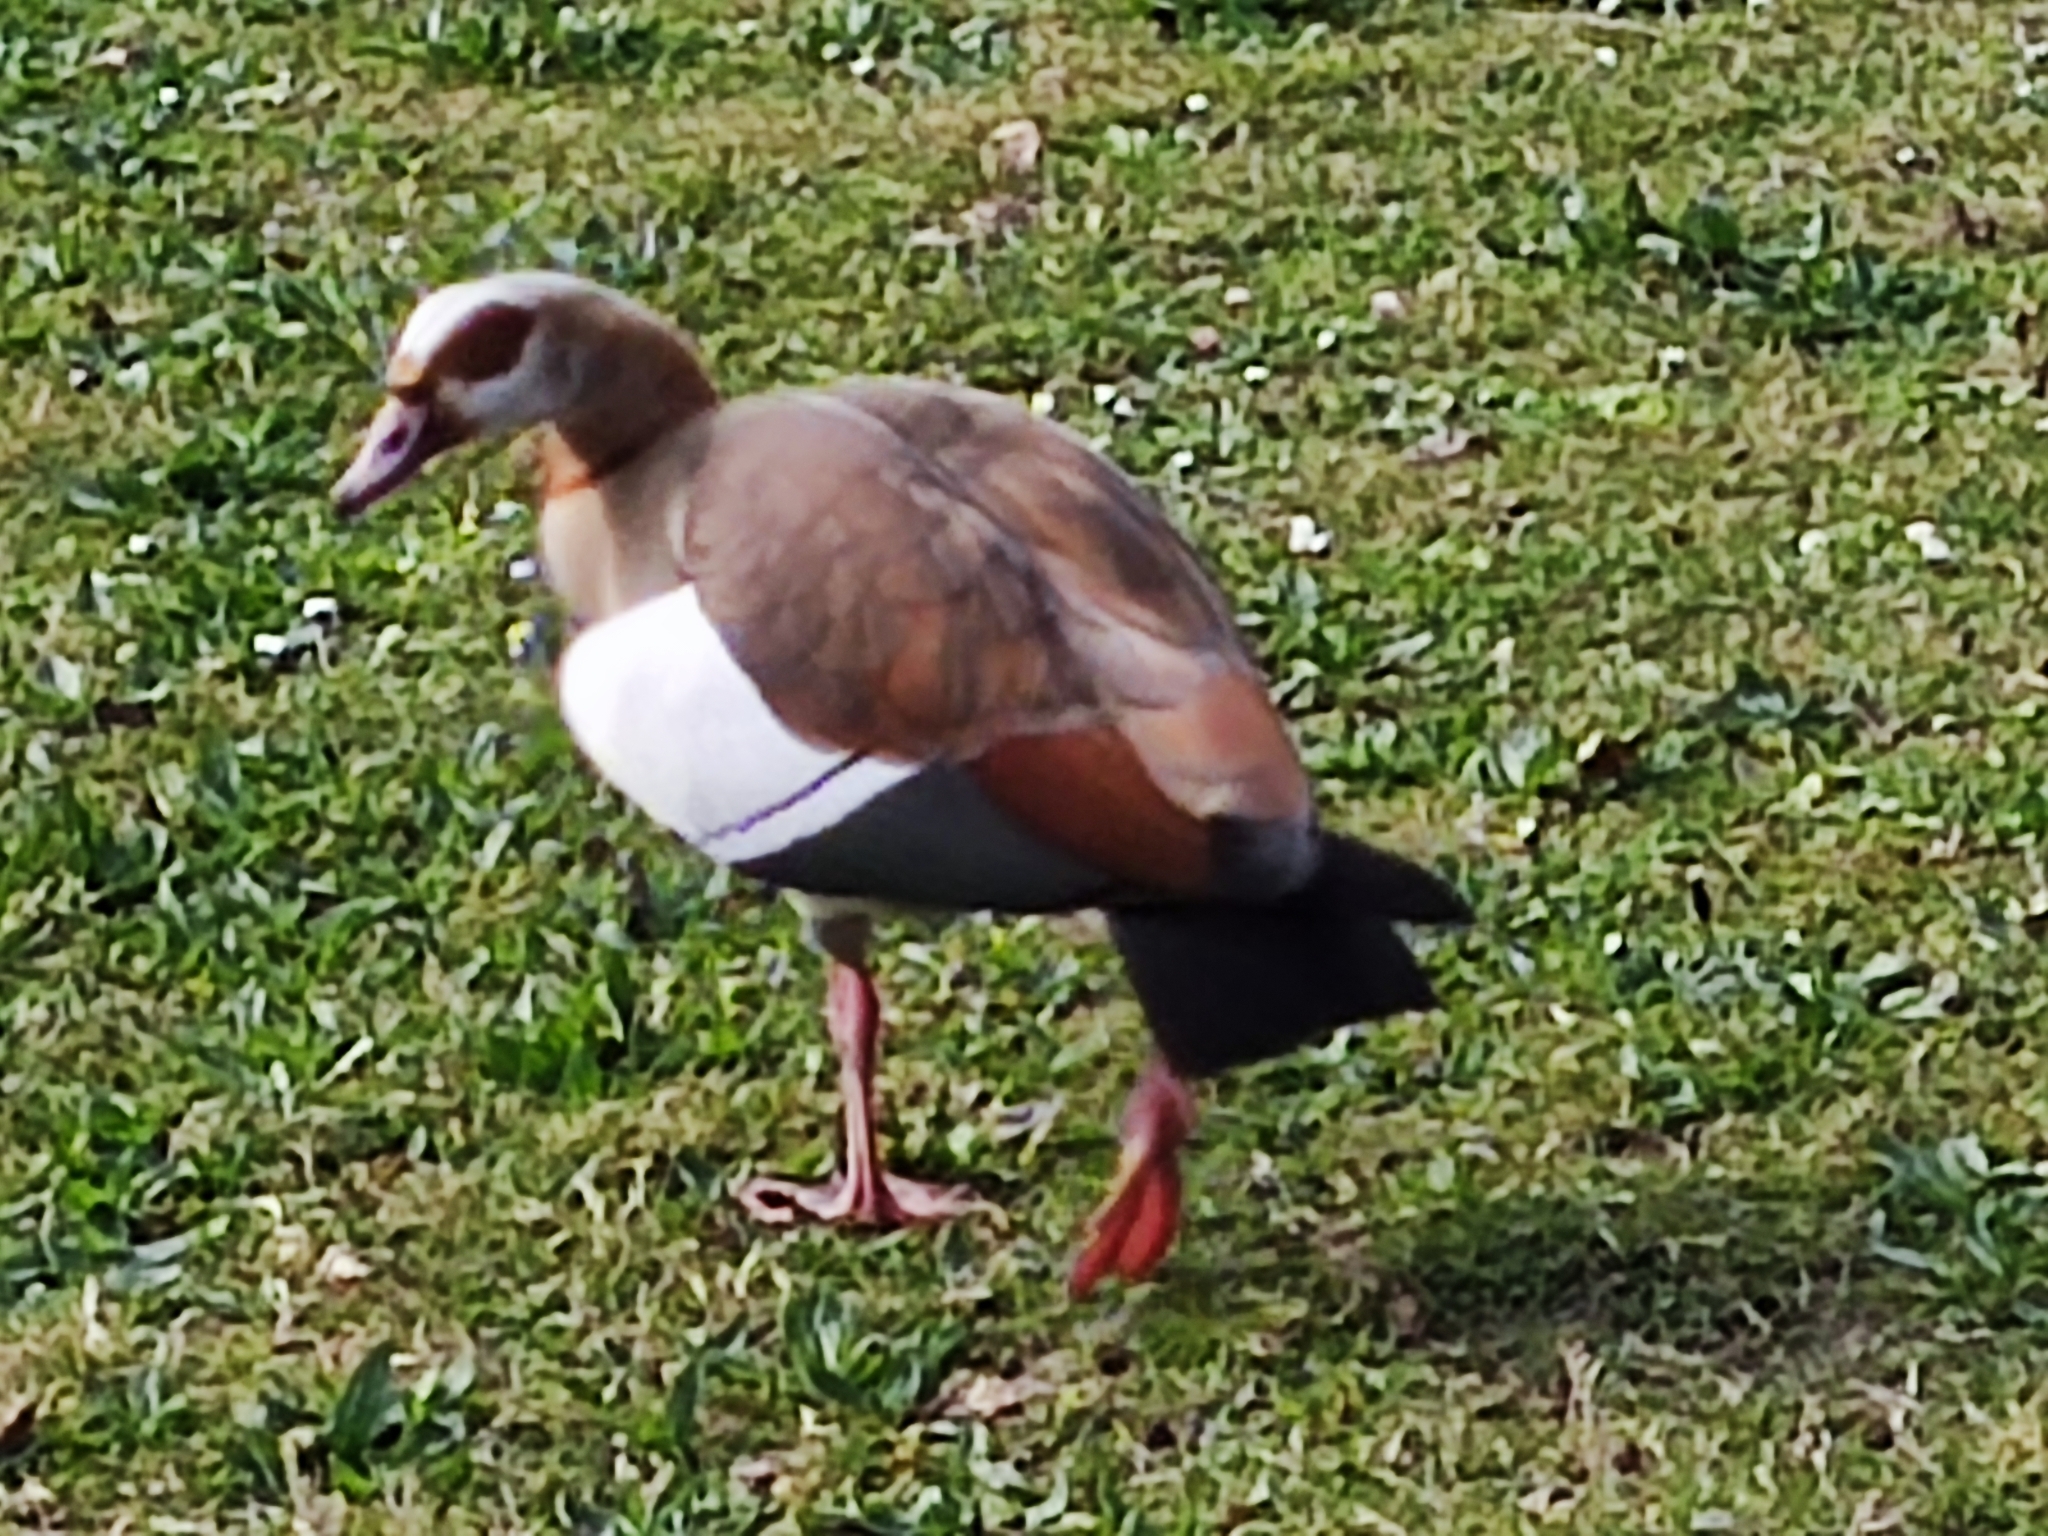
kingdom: Animalia
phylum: Chordata
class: Aves
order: Anseriformes
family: Anatidae
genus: Alopochen
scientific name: Alopochen aegyptiaca
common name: Egyptian goose
